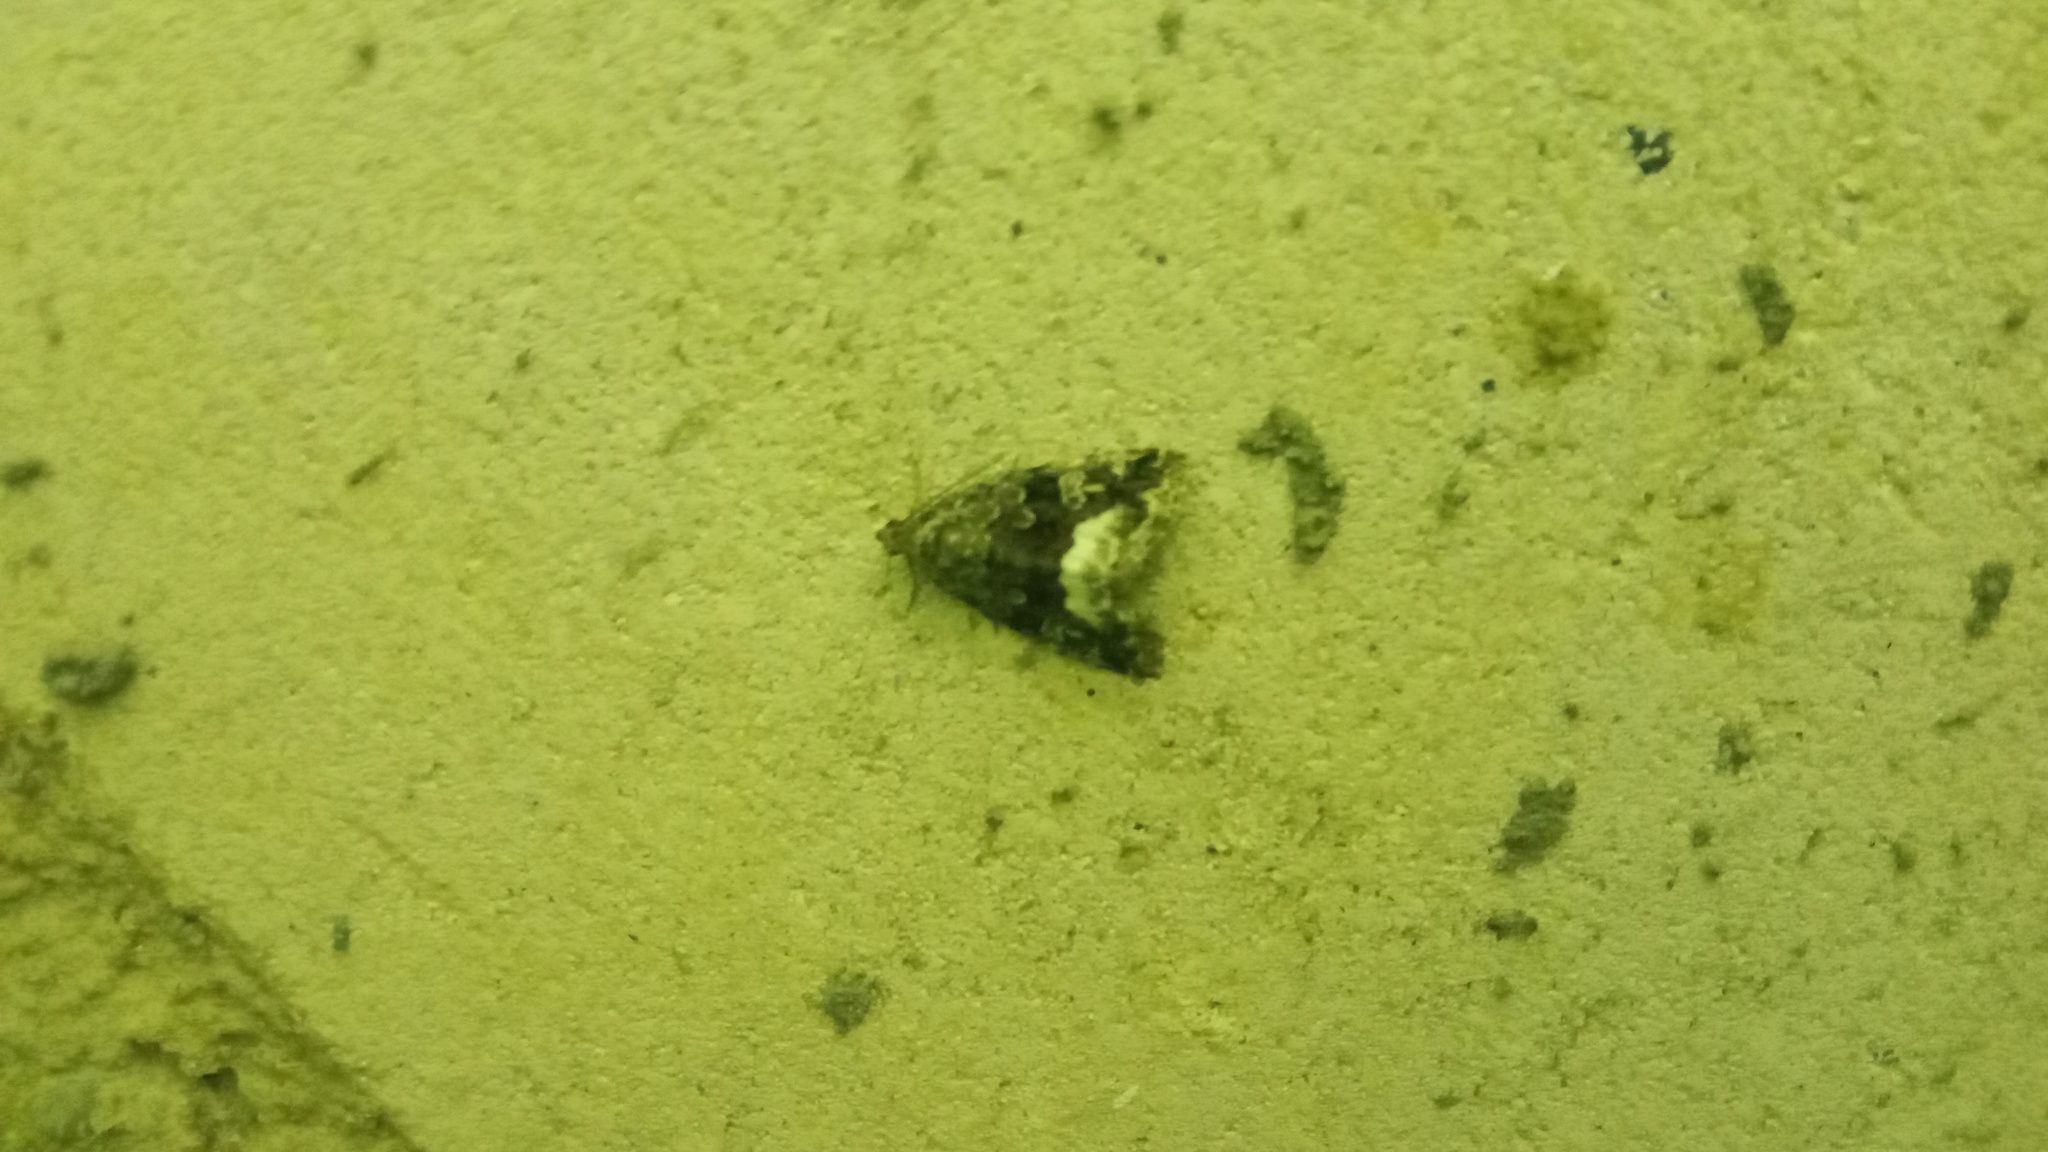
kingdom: Animalia
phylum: Arthropoda
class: Insecta
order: Lepidoptera
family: Noctuidae
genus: Deltote
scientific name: Deltote pygarga
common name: Marbled white spot
